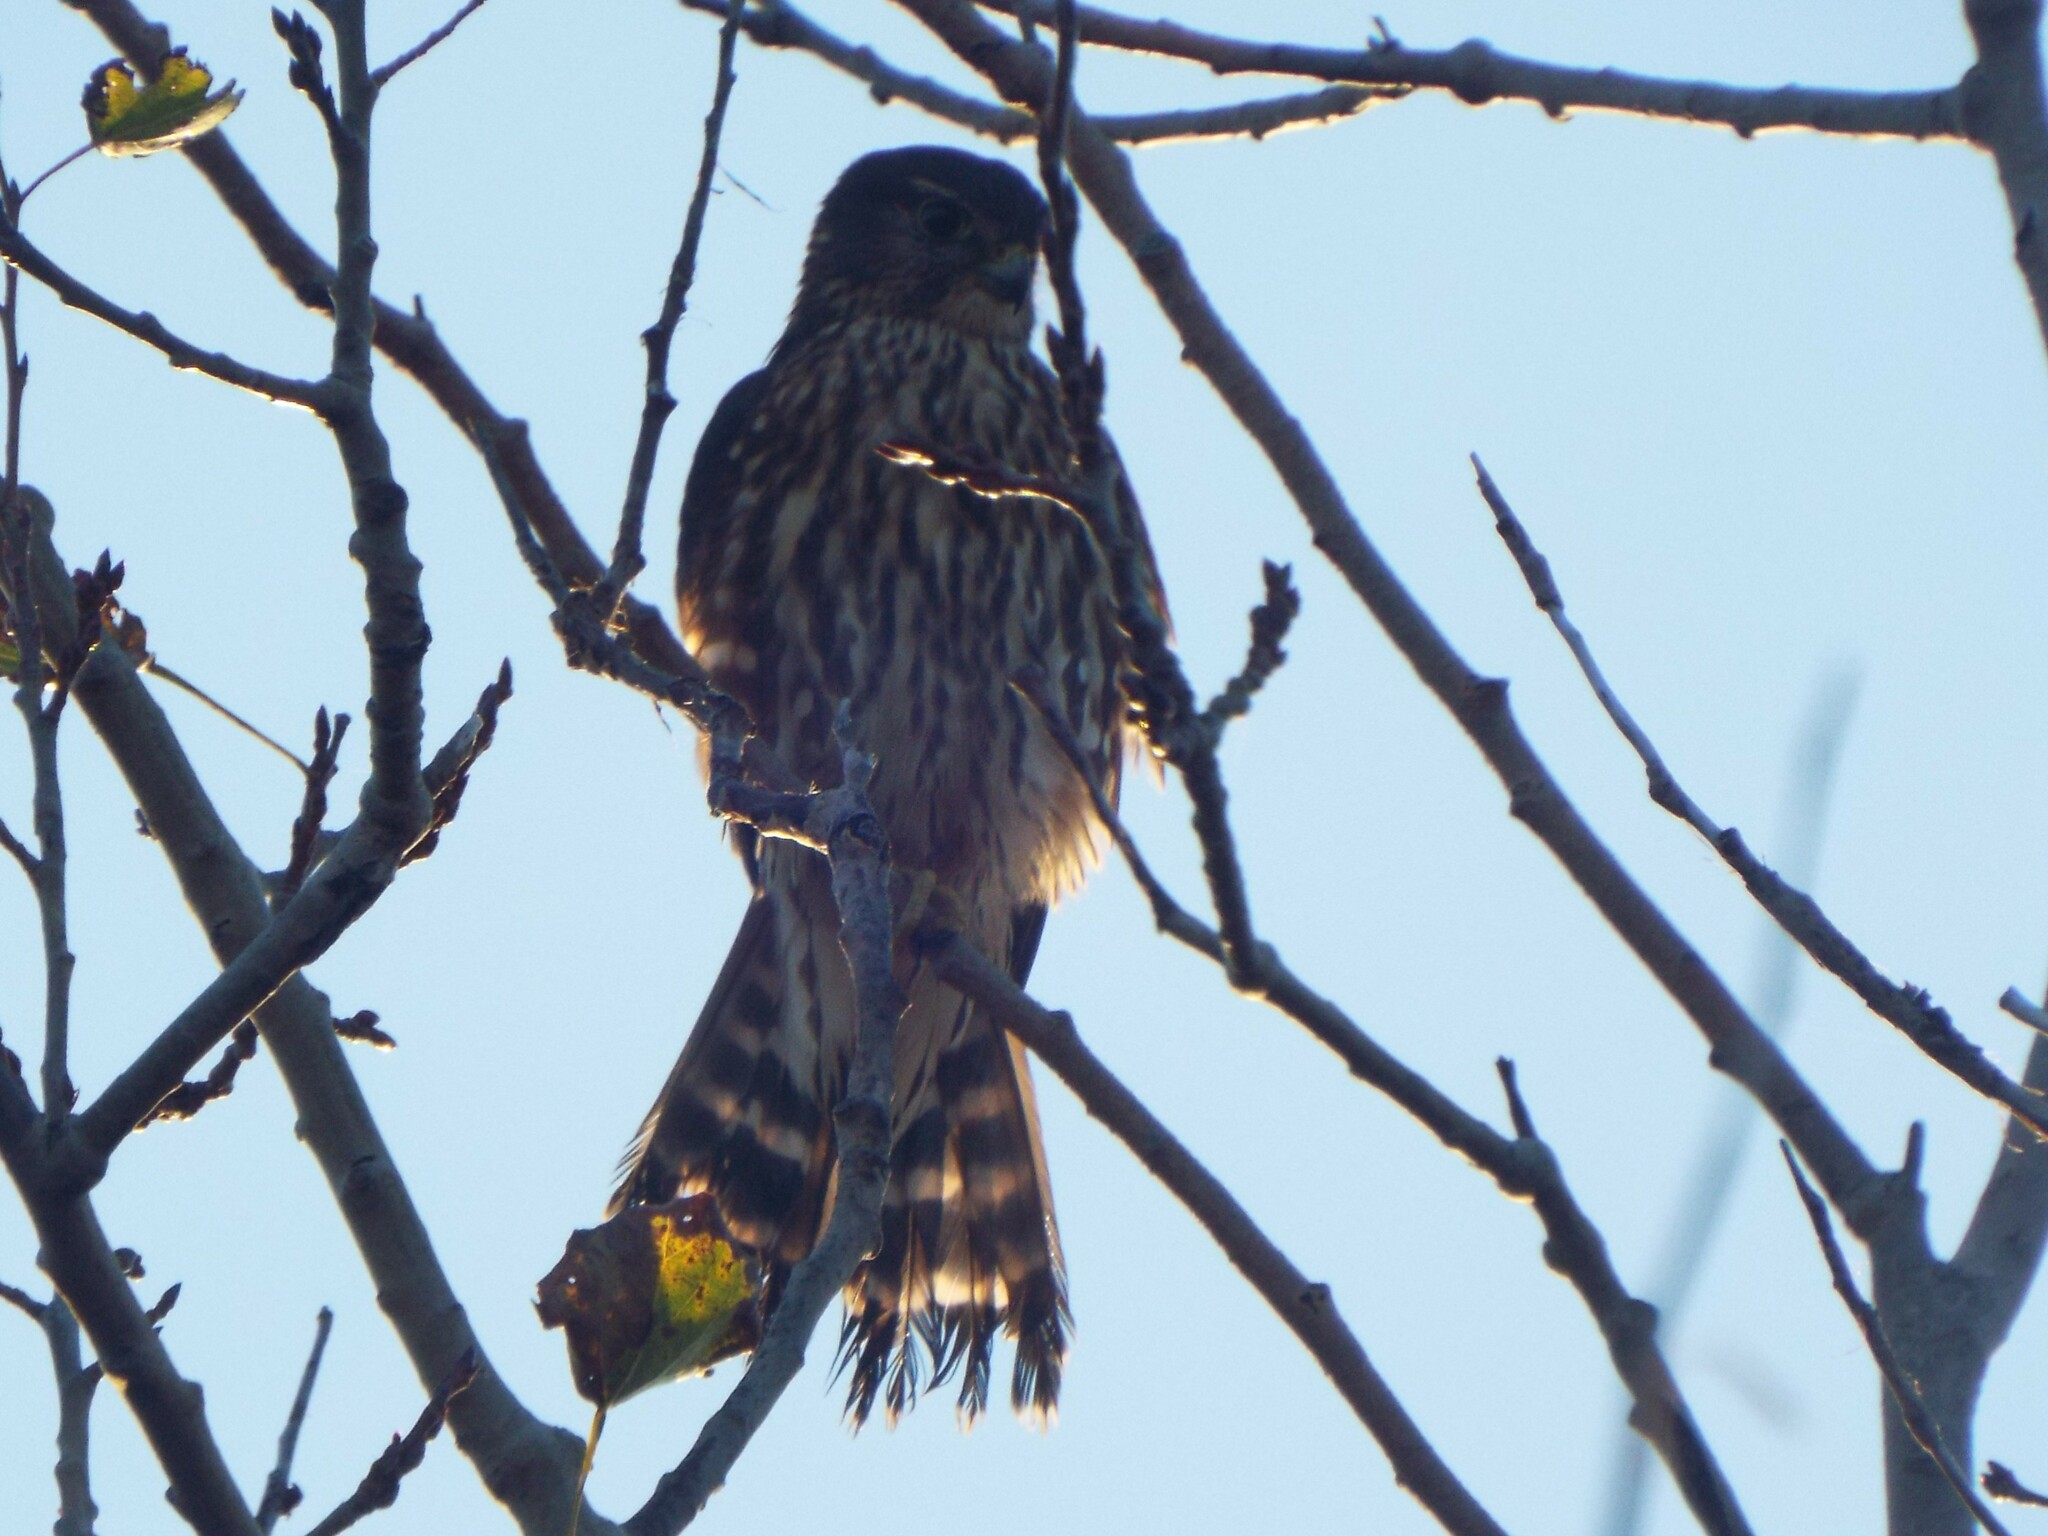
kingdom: Animalia
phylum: Chordata
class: Aves
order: Falconiformes
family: Falconidae
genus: Falco
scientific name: Falco columbarius
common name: Merlin
